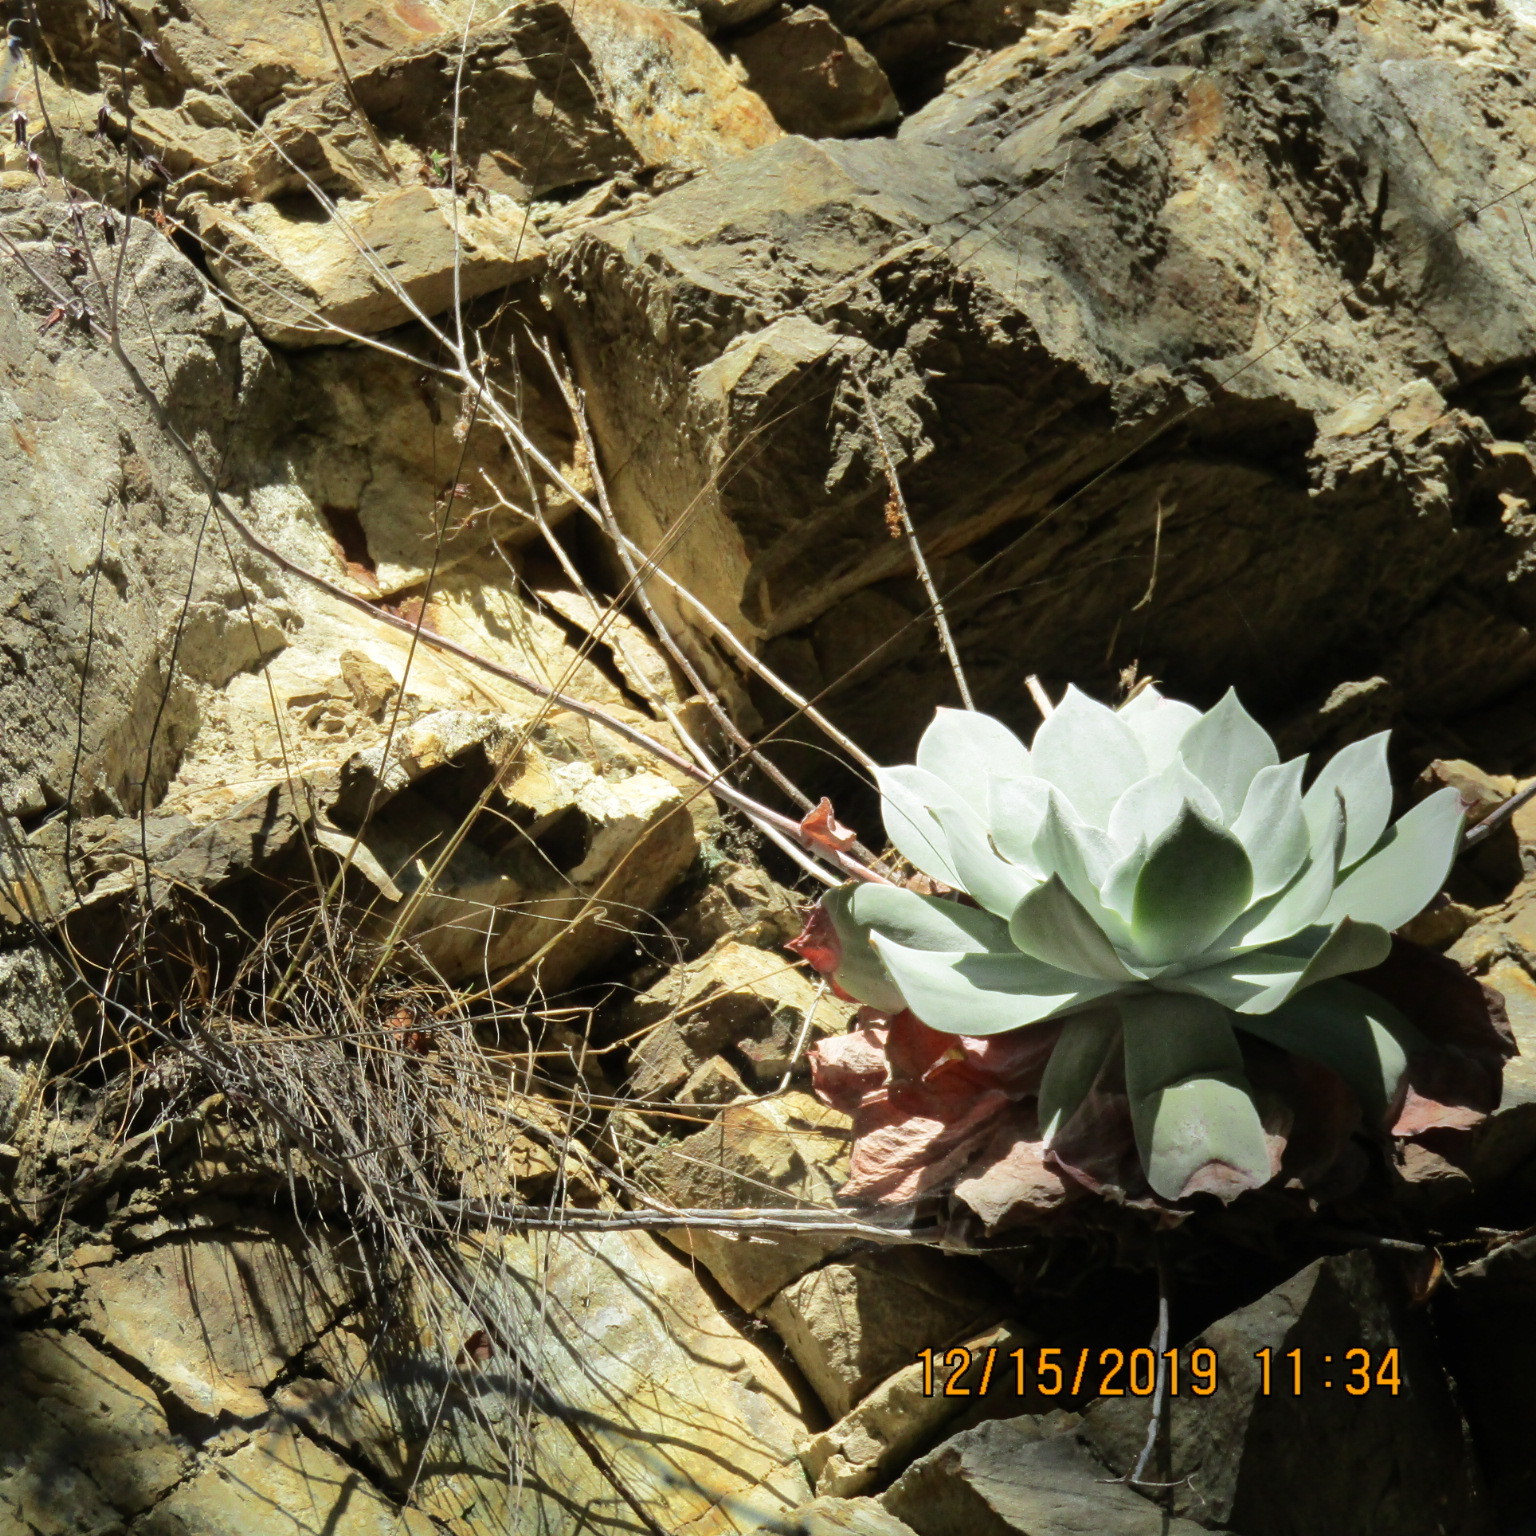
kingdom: Plantae
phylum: Tracheophyta
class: Magnoliopsida
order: Saxifragales
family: Crassulaceae
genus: Dudleya
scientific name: Dudleya pulverulenta
